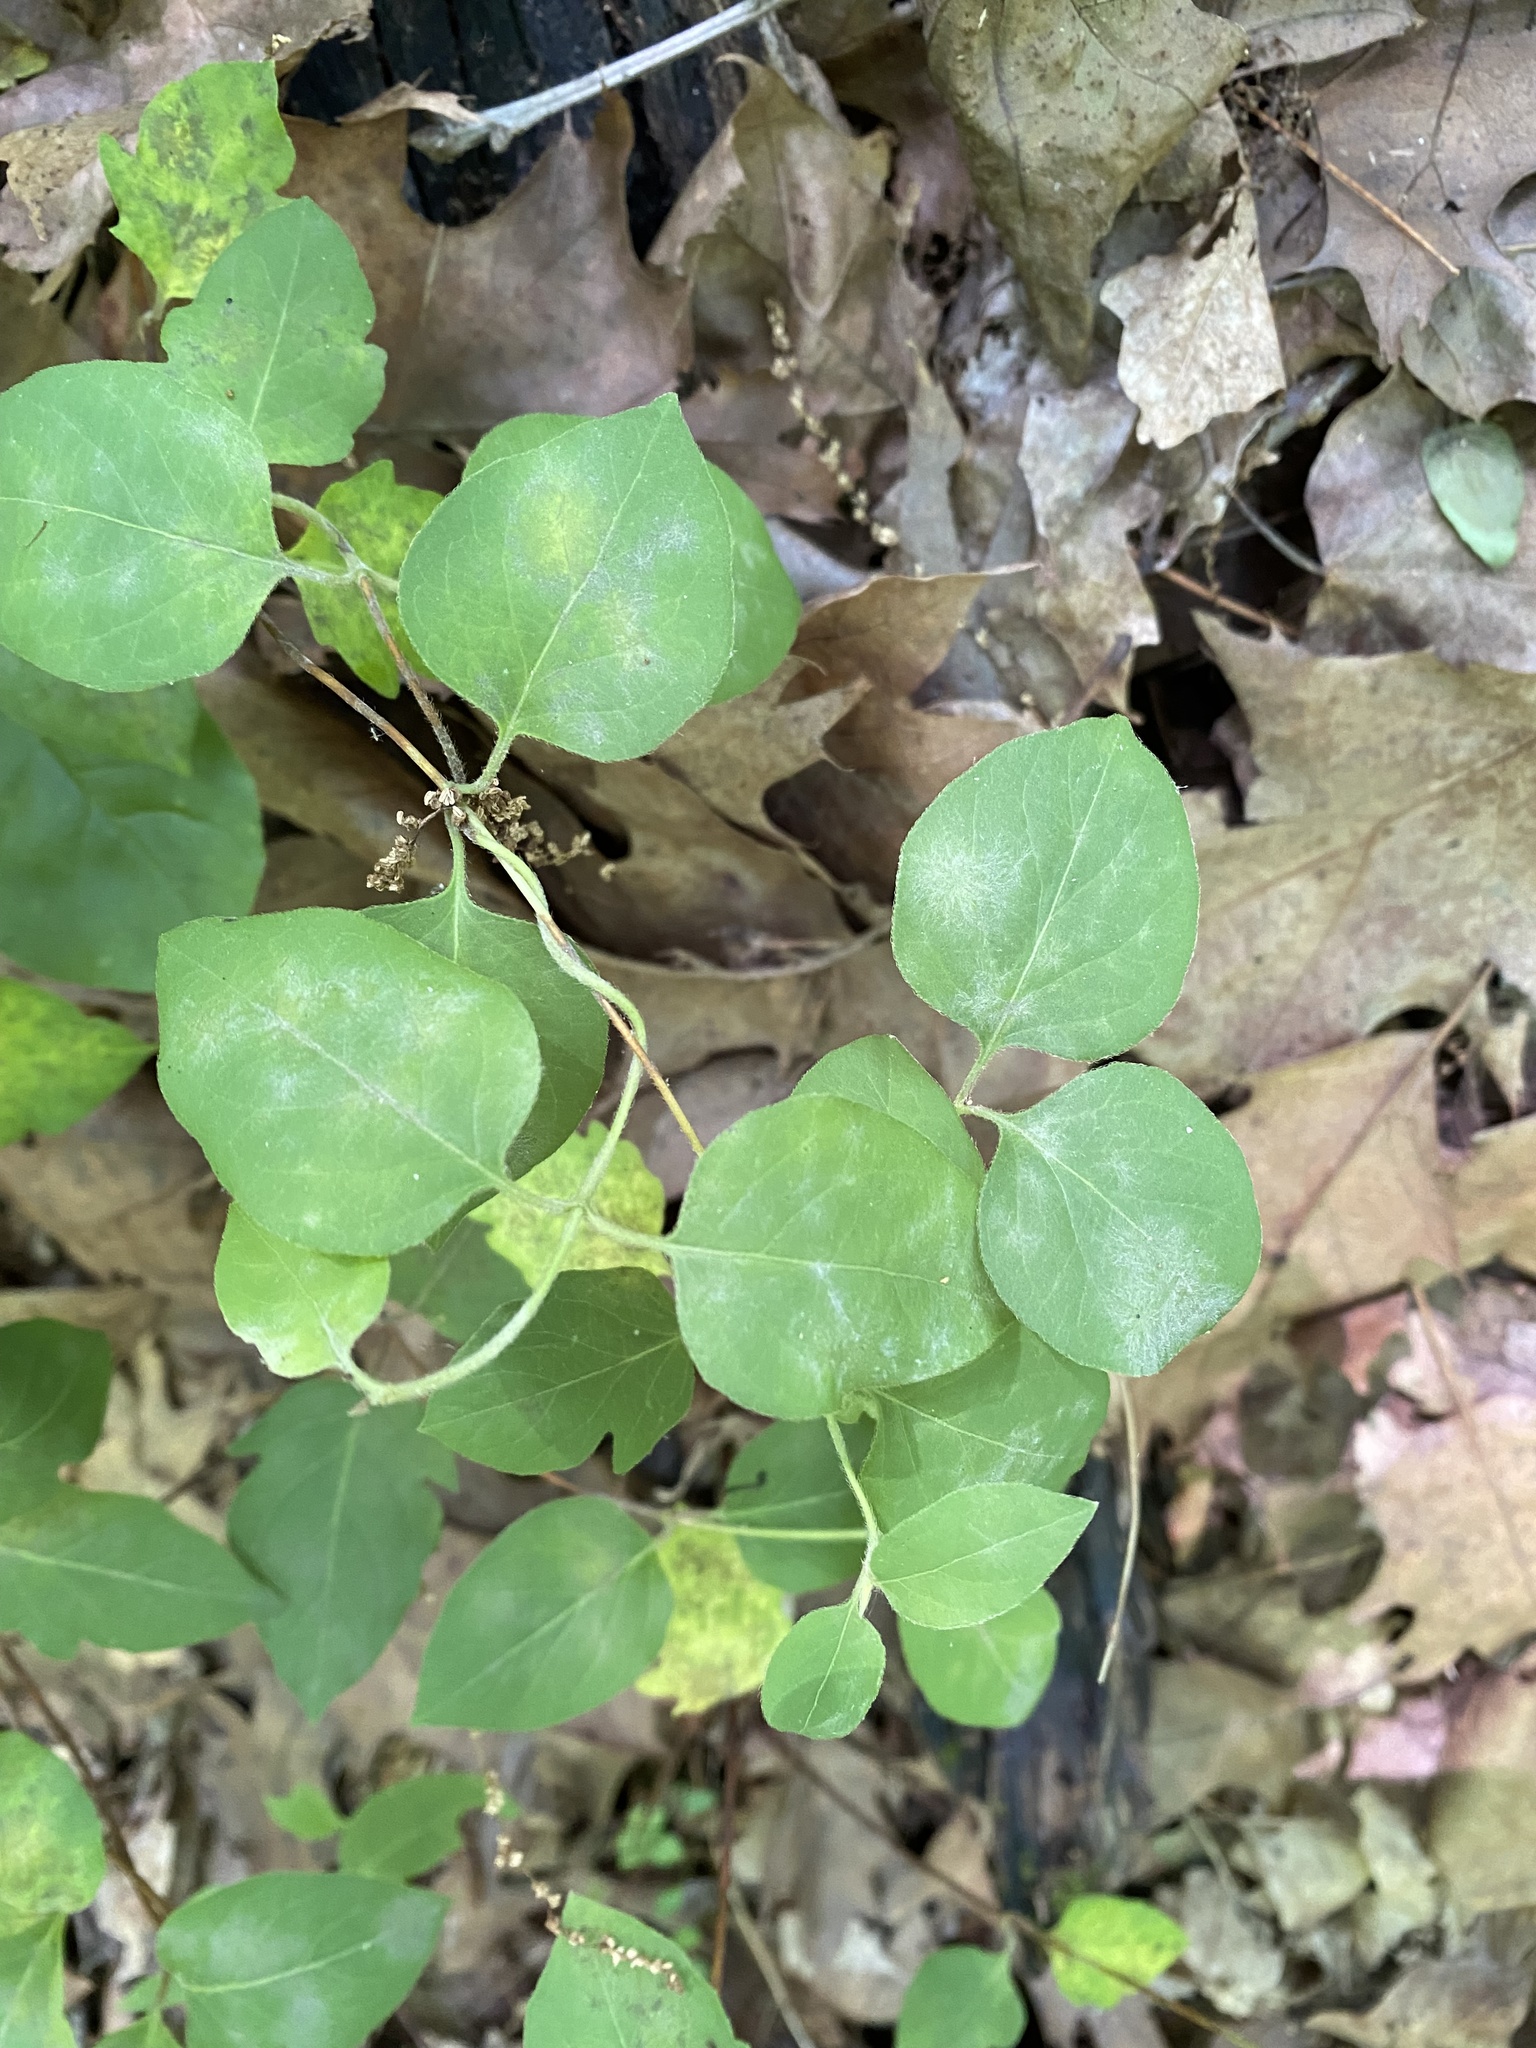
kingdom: Plantae
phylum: Tracheophyta
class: Magnoliopsida
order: Dipsacales
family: Caprifoliaceae
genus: Lonicera
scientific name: Lonicera japonica
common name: Japanese honeysuckle
